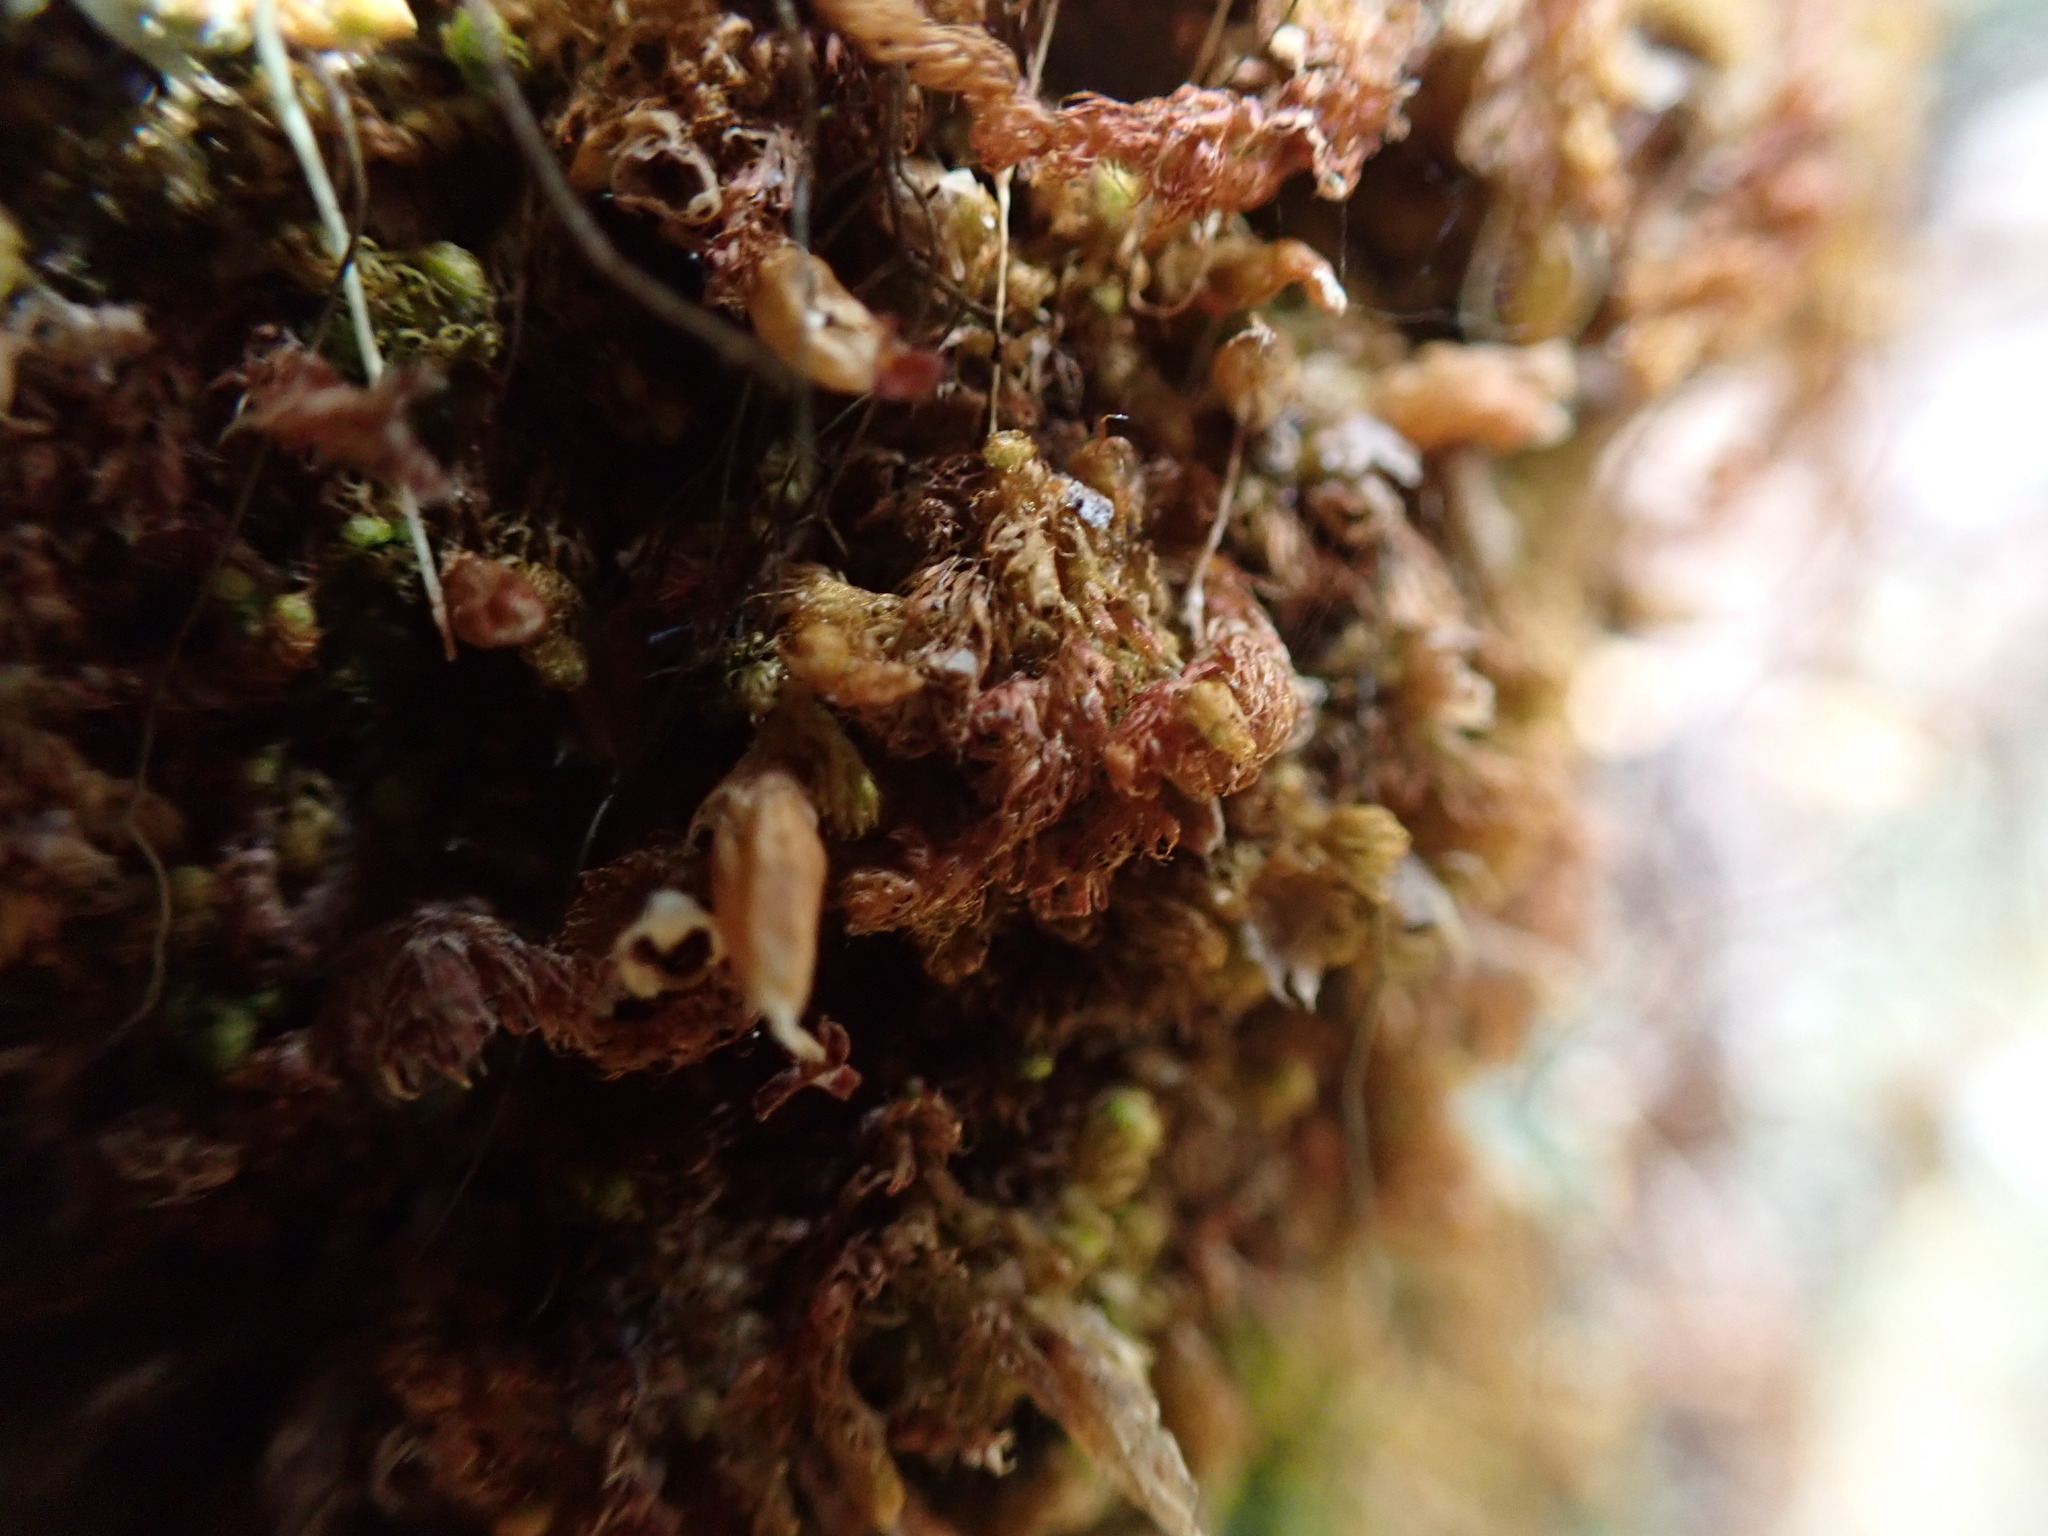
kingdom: Plantae
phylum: Marchantiophyta
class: Jungermanniopsida
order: Ptilidiales
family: Ptilidiaceae
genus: Ptilidium
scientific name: Ptilidium californicum
